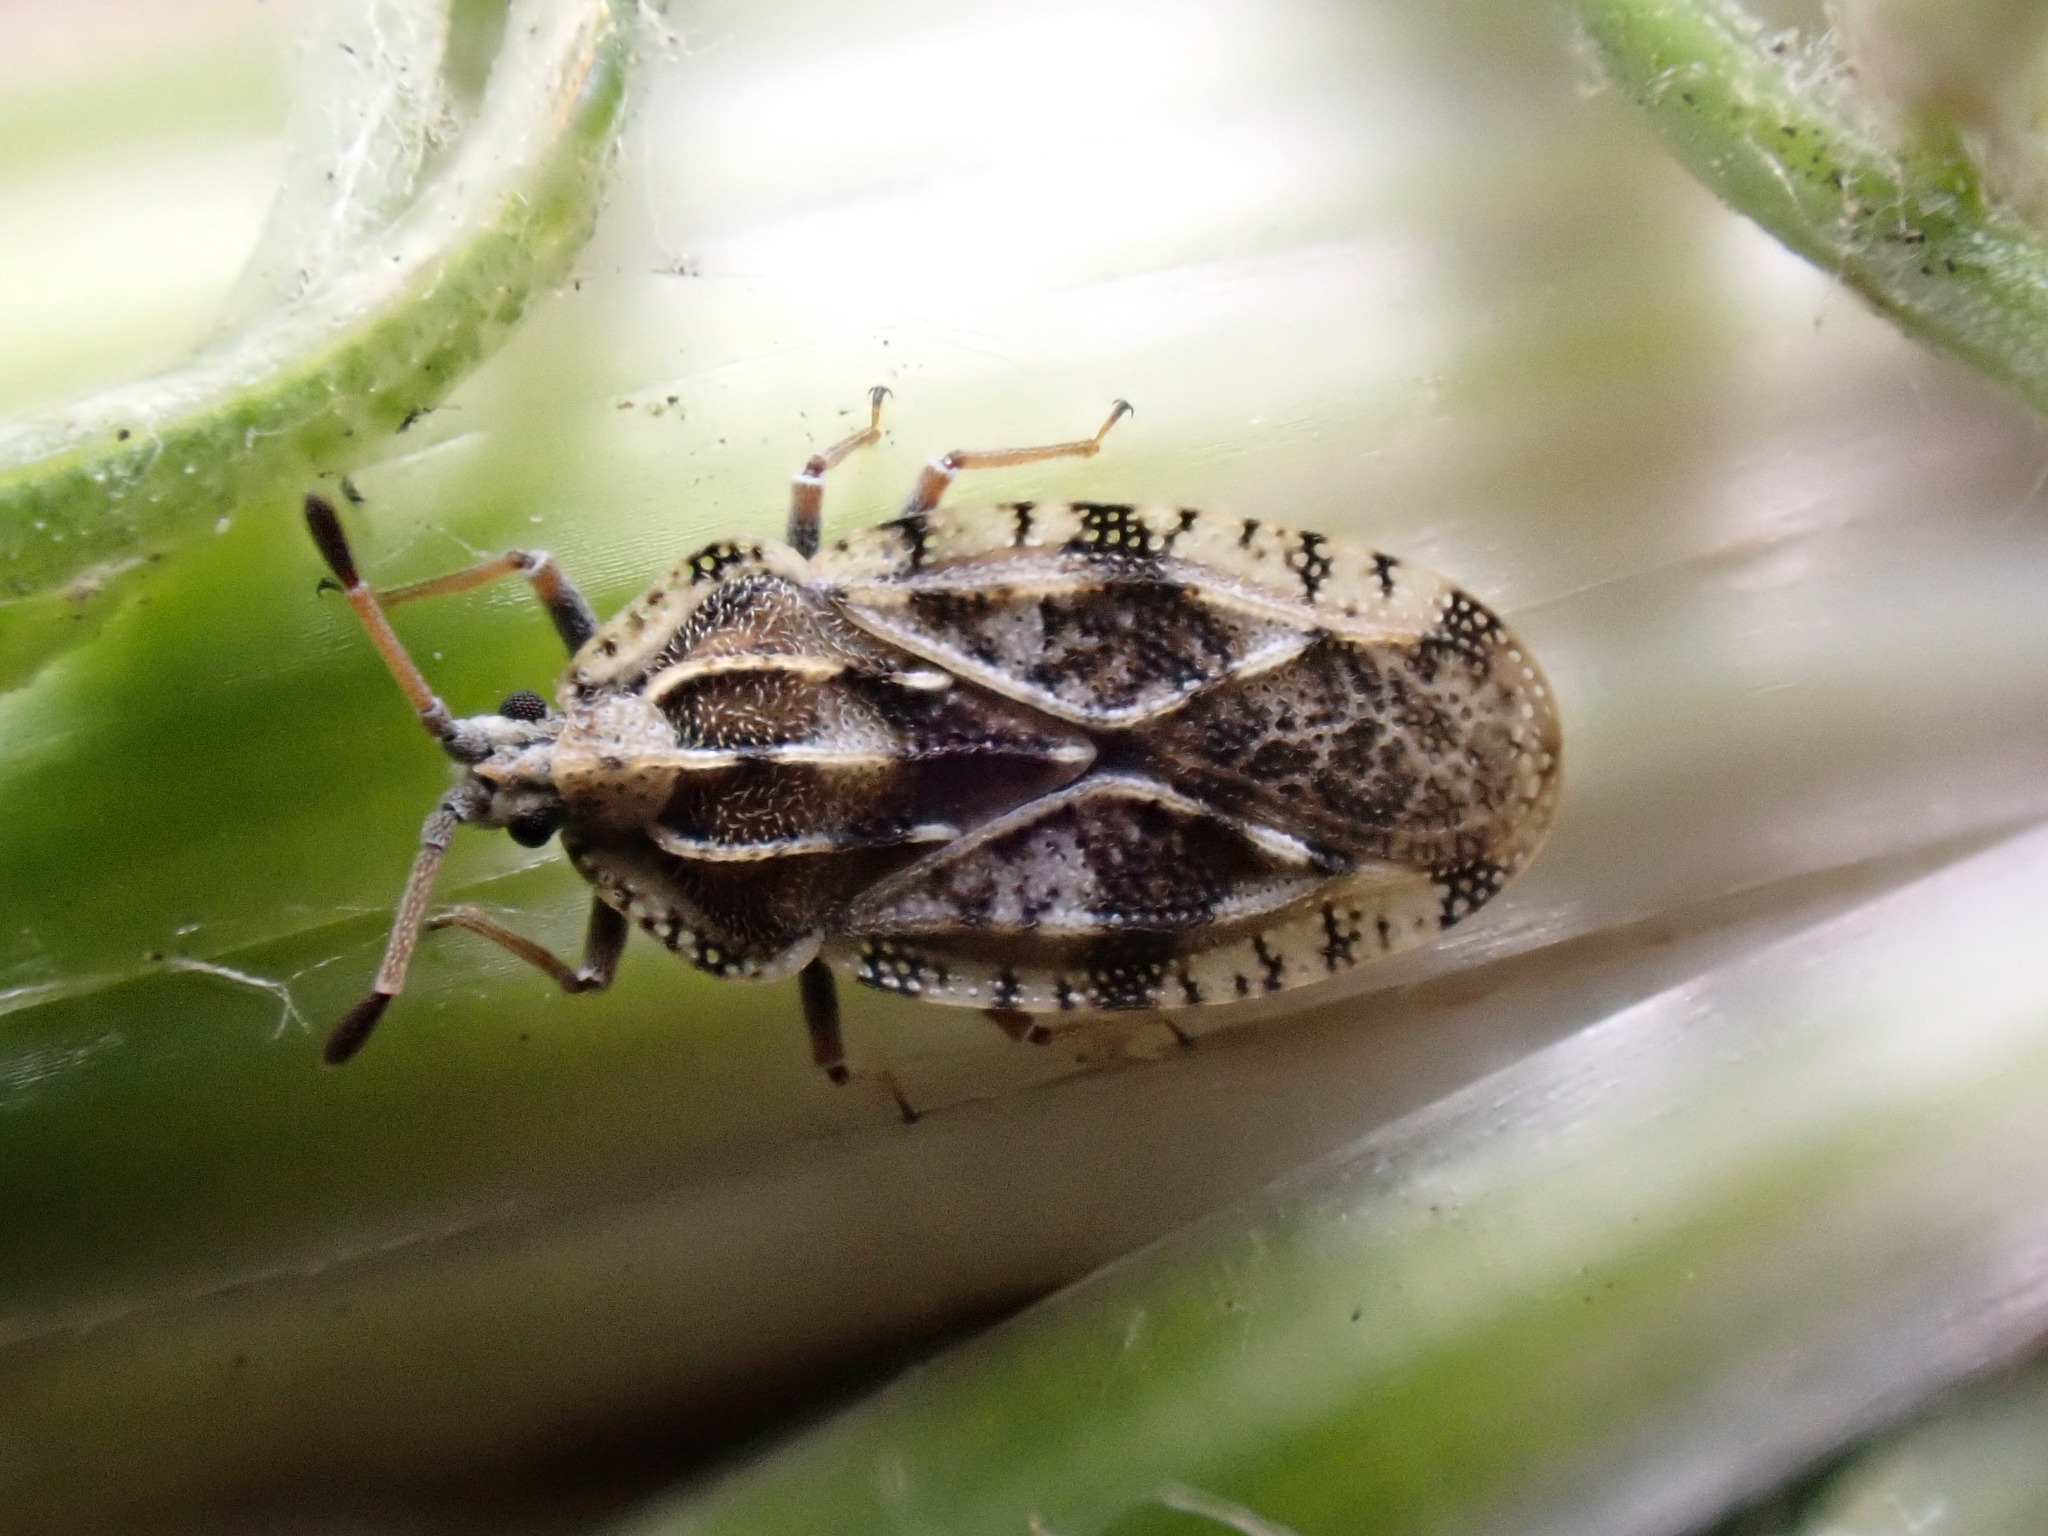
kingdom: Animalia
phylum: Arthropoda
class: Insecta
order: Hemiptera
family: Tingidae
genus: Tingis
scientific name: Tingis cardui
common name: Spear thistle lacebug
